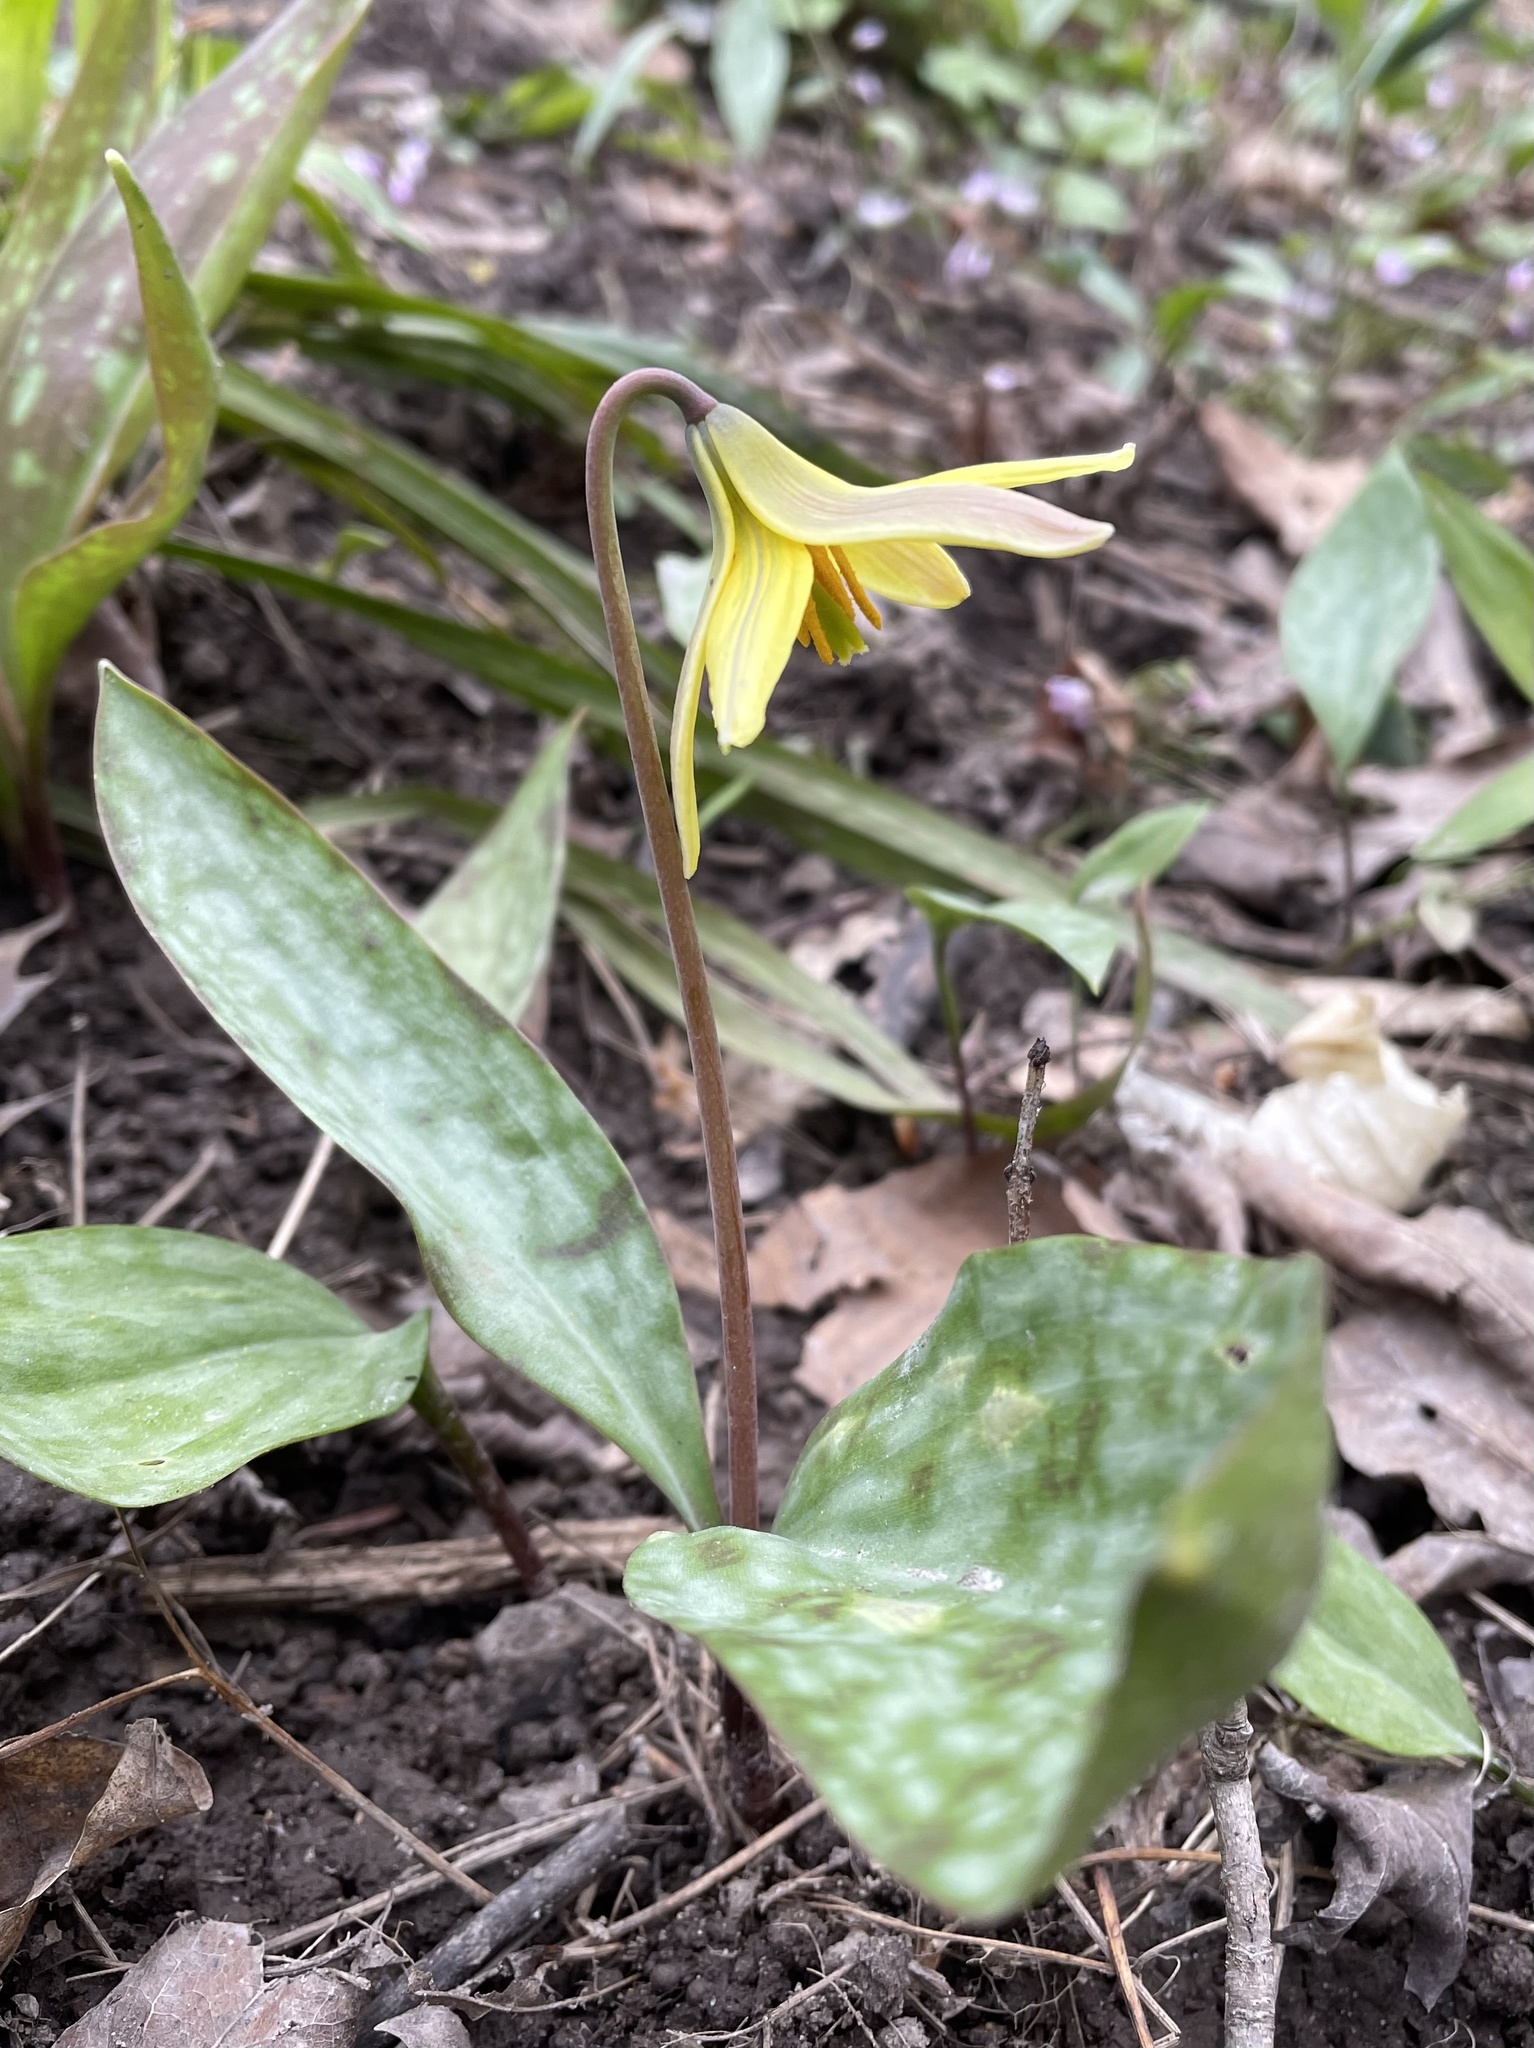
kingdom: Plantae
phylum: Tracheophyta
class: Liliopsida
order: Liliales
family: Liliaceae
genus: Erythronium
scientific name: Erythronium americanum
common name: Yellow adder's-tongue
